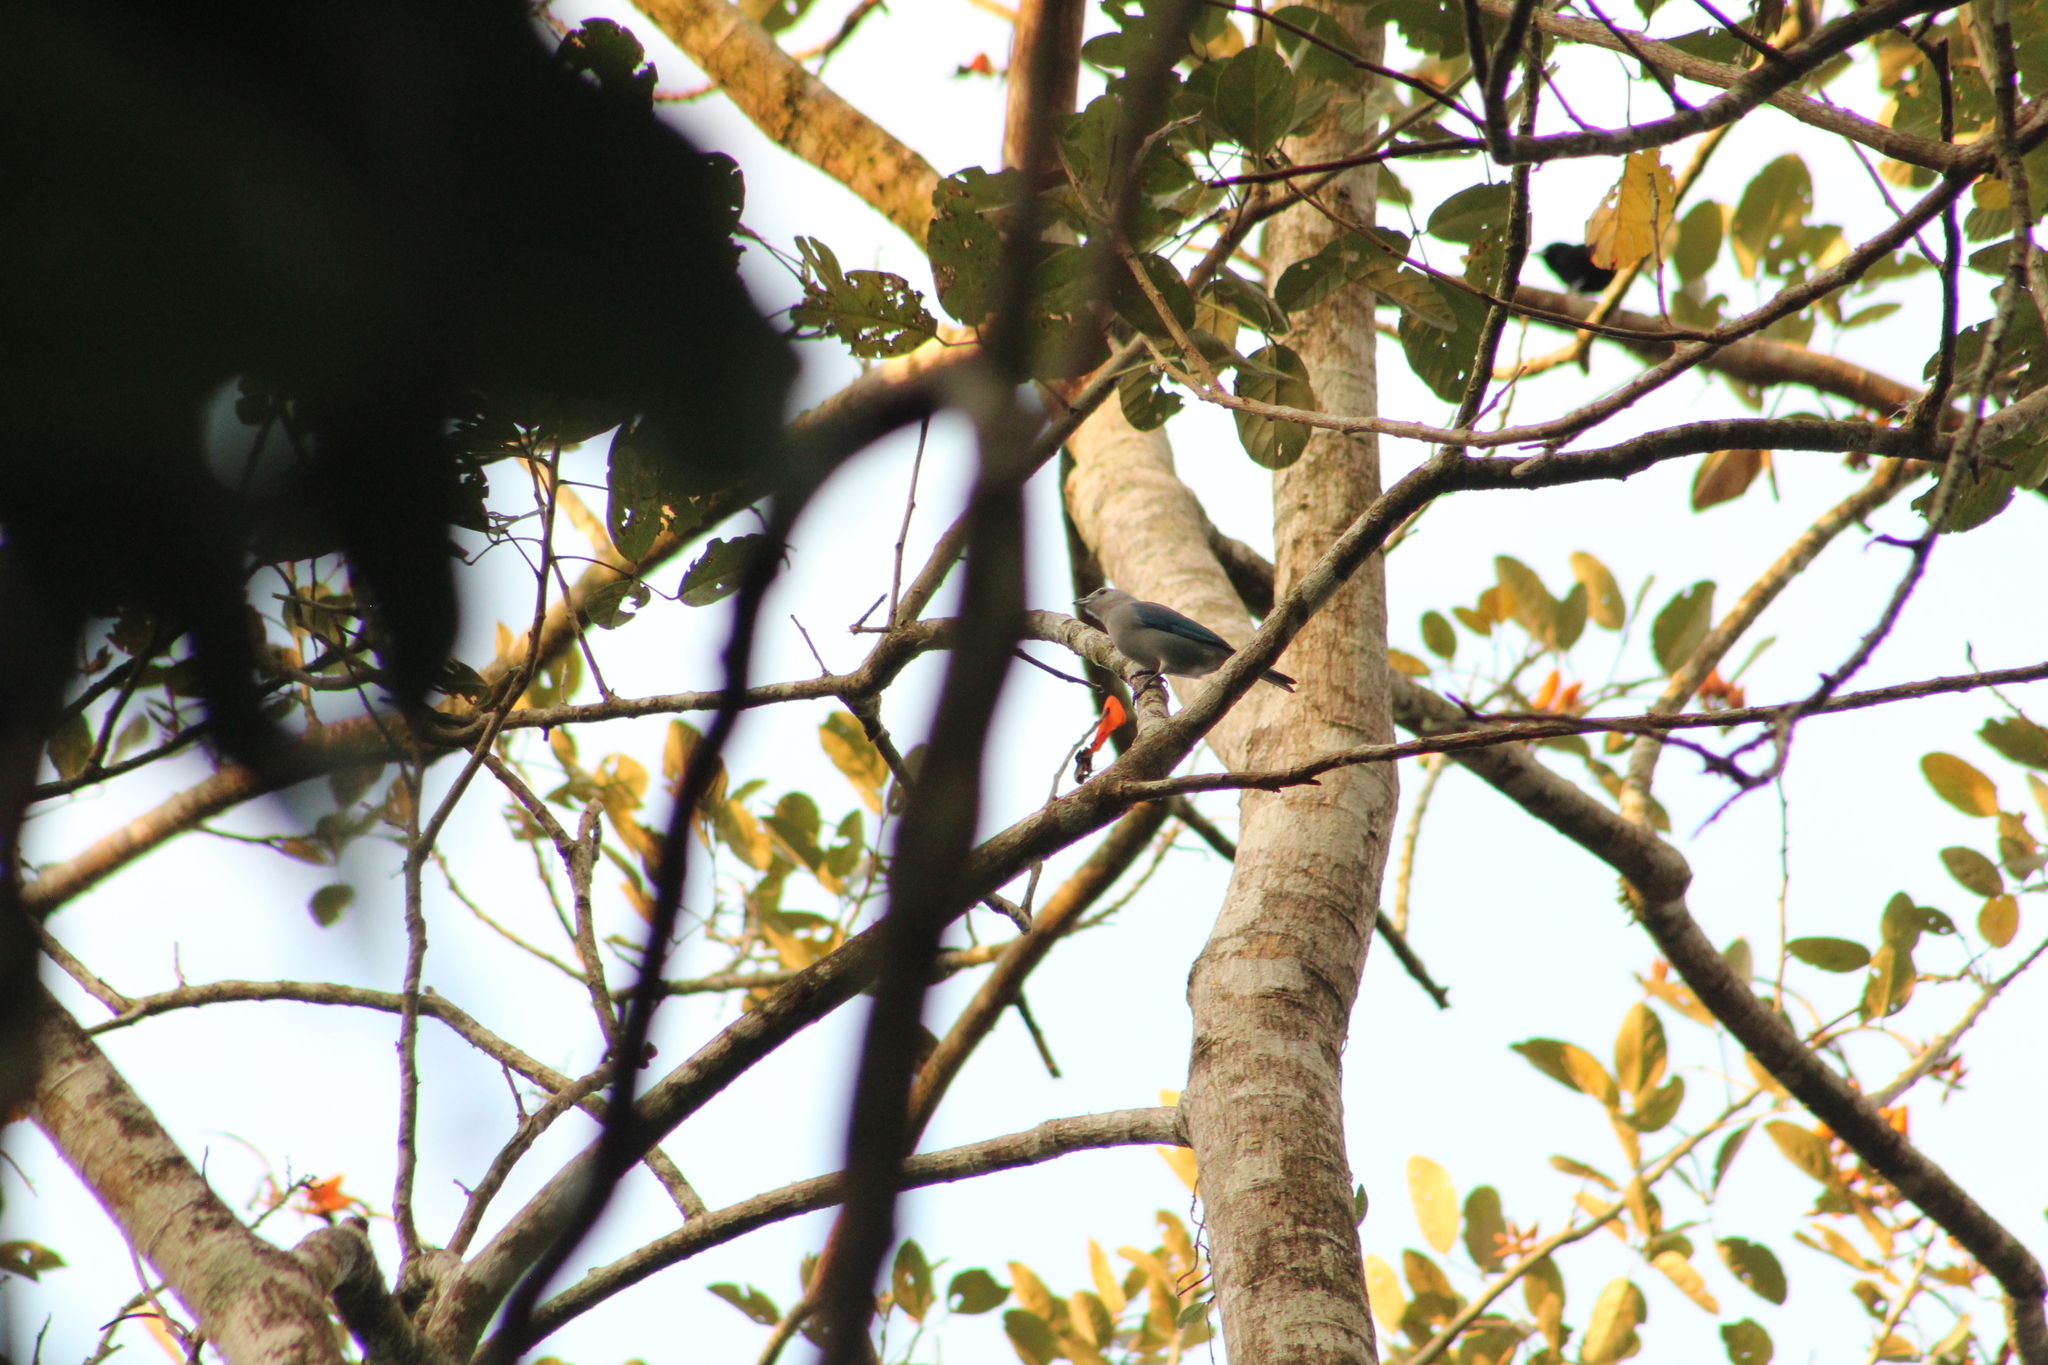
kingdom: Animalia
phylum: Chordata
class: Aves
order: Passeriformes
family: Thraupidae
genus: Thraupis
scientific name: Thraupis episcopus
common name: Blue-grey tanager
